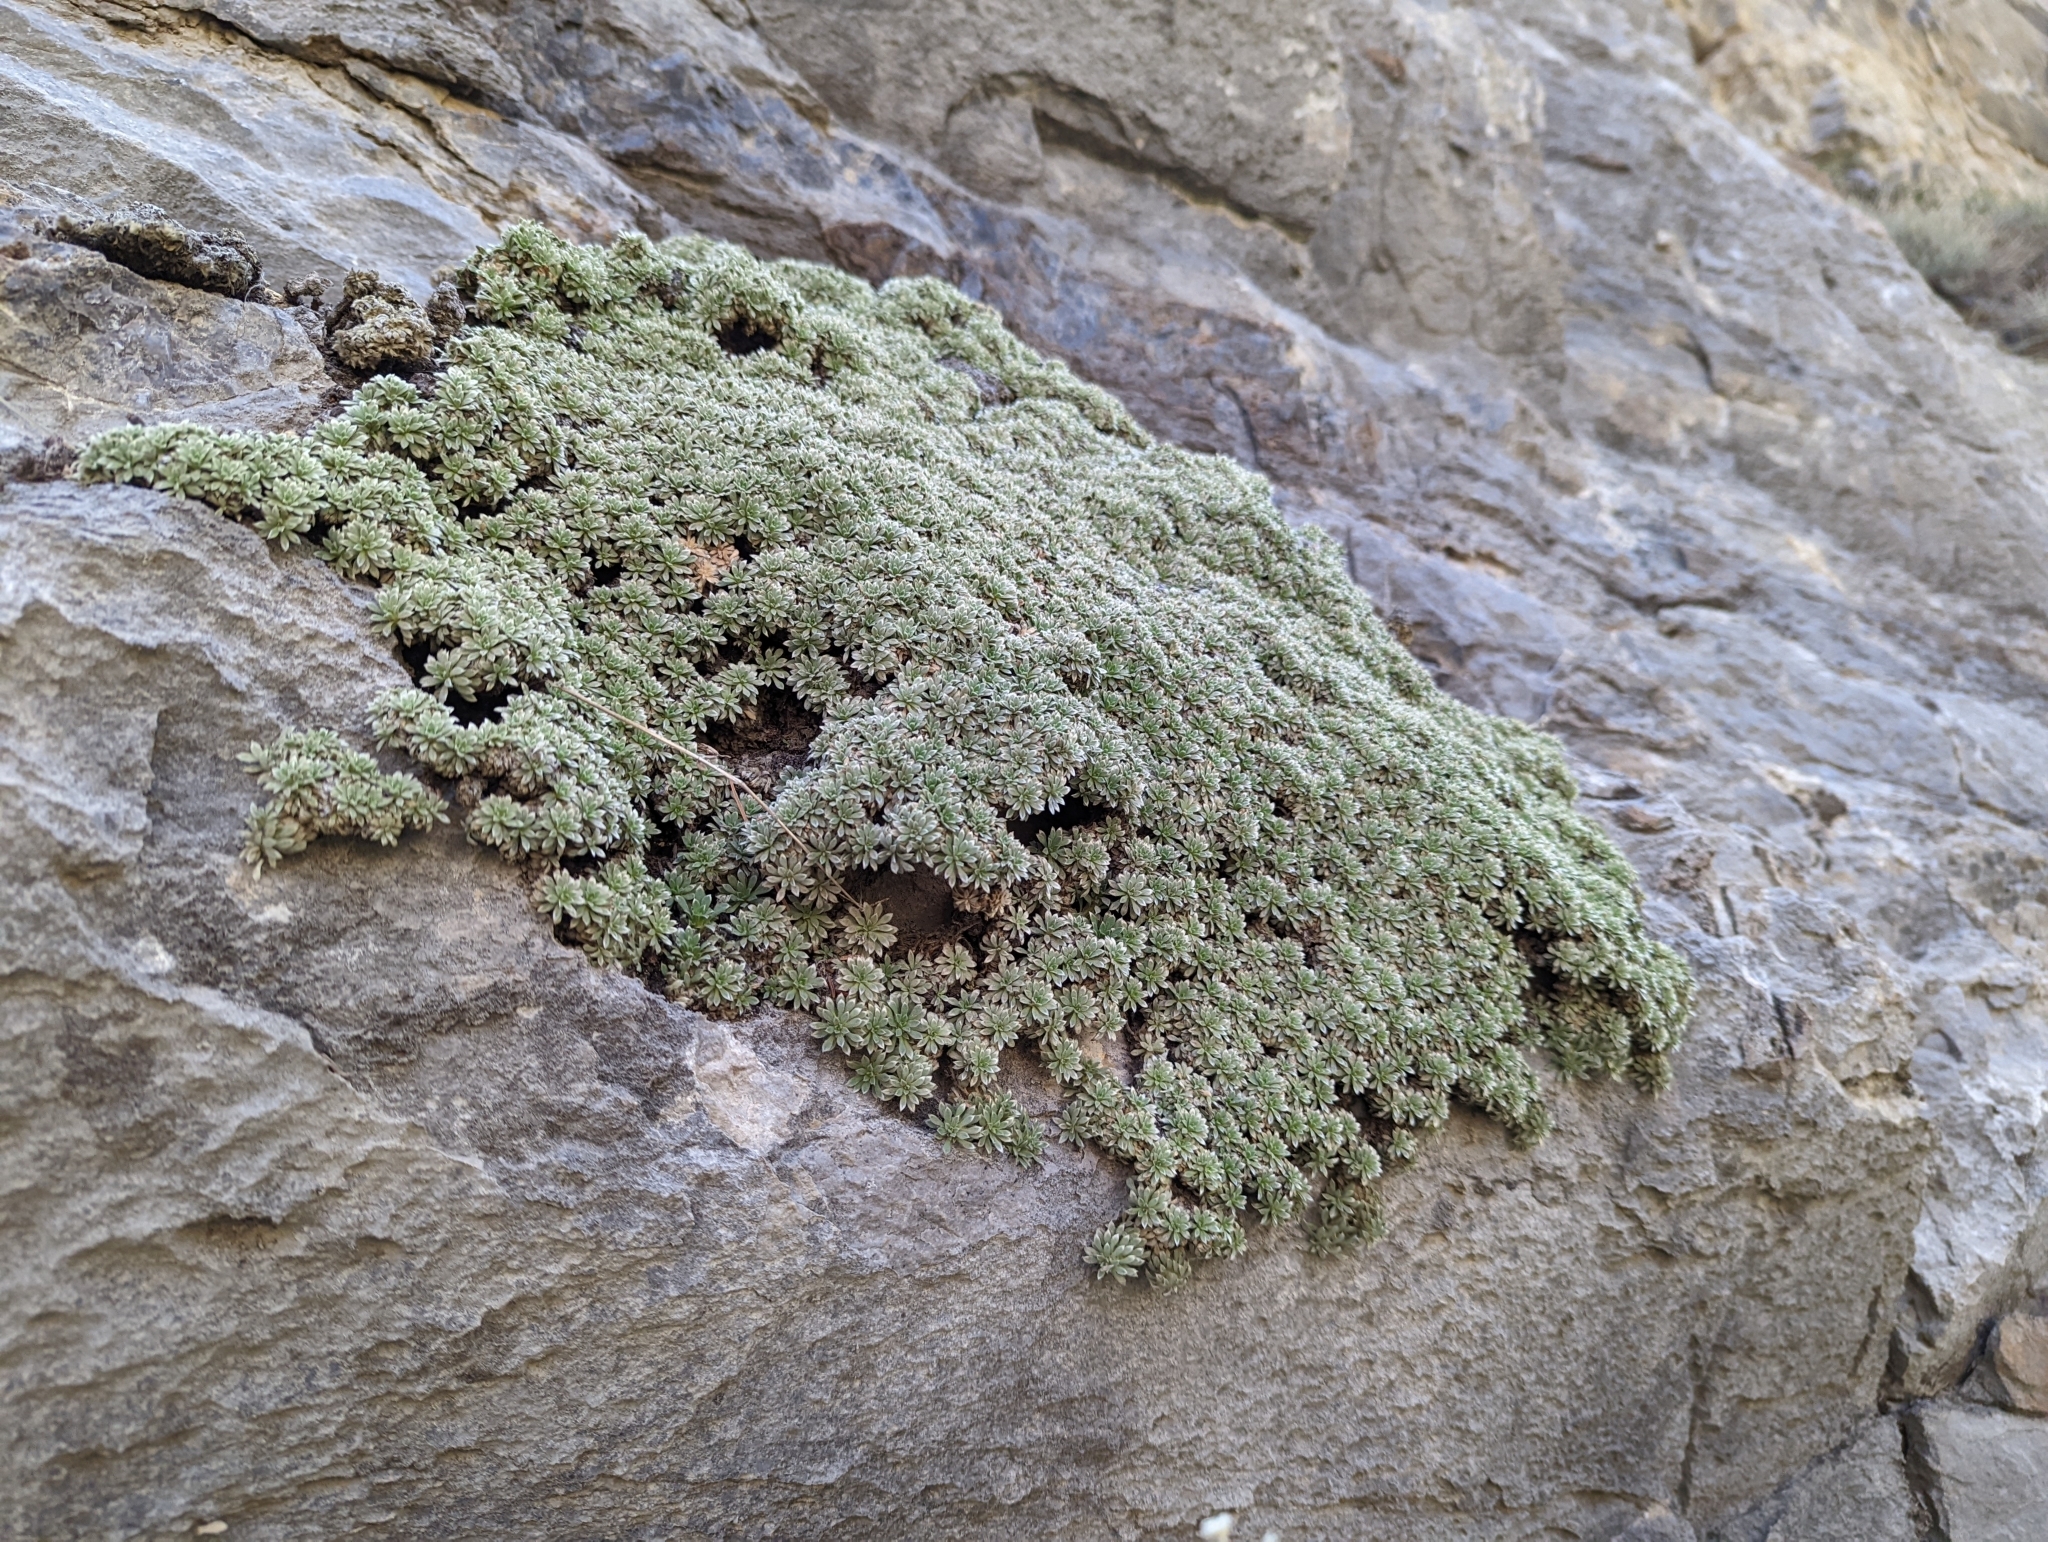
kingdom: Plantae
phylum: Tracheophyta
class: Magnoliopsida
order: Rosales
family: Rosaceae
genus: Petrophytum
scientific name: Petrophytum caespitosum
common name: Mat rockspirea
